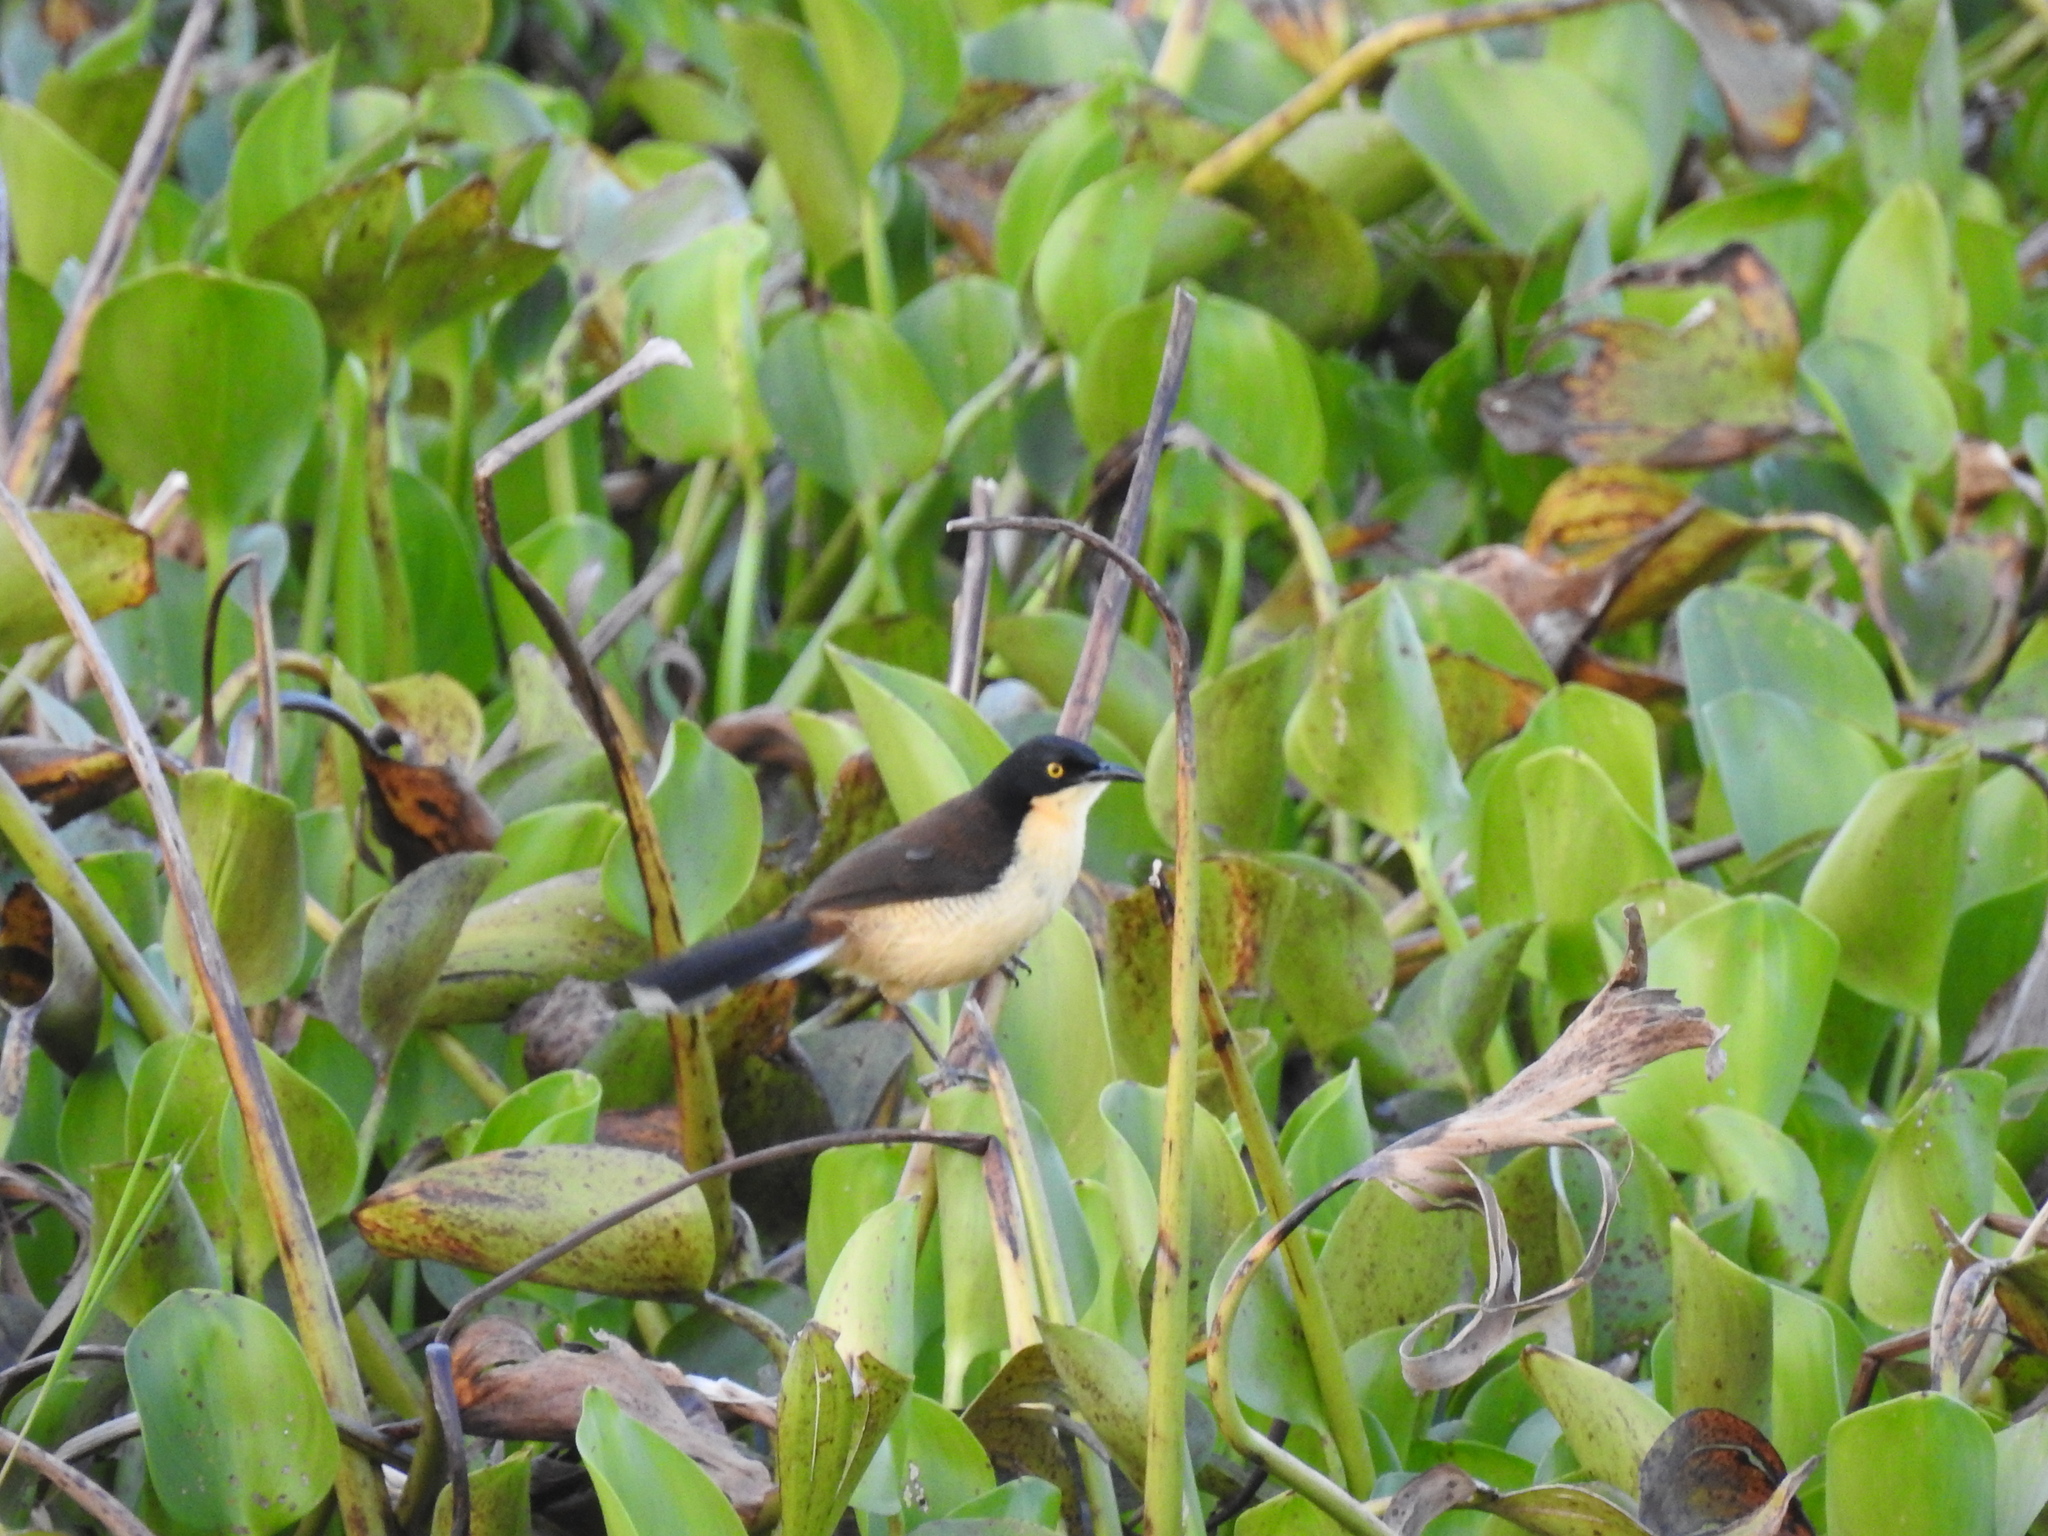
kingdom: Animalia
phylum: Chordata
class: Aves
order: Passeriformes
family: Donacobiidae
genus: Donacobius
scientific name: Donacobius atricapilla
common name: Black-capped donacobius
